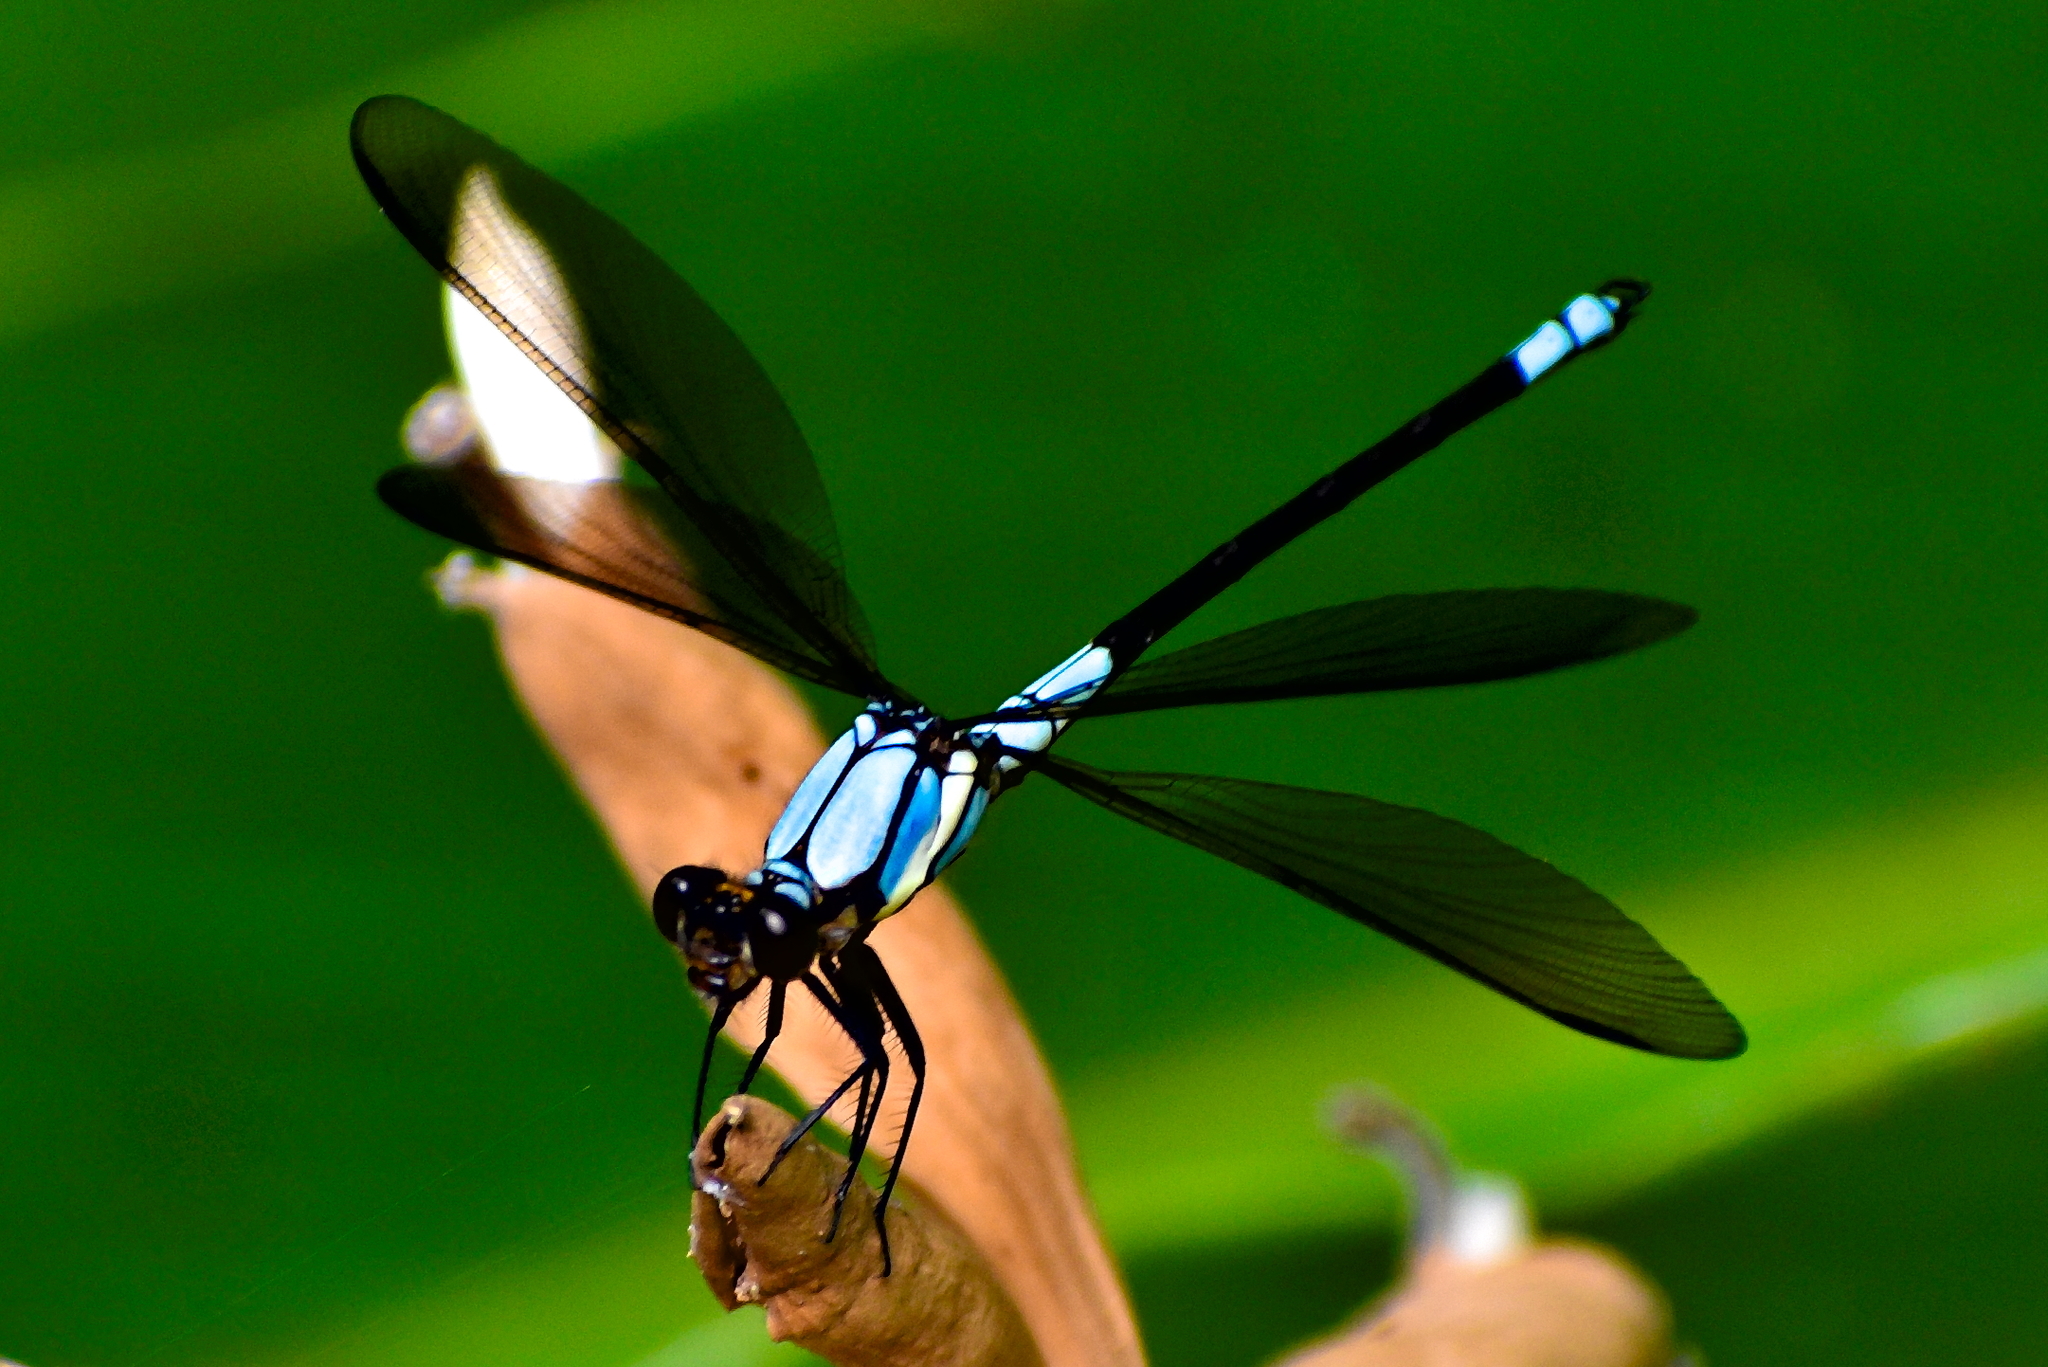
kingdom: Animalia
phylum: Arthropoda
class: Insecta
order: Odonata
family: Lestoideidae
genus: Diphlebia
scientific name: Diphlebia euphoeoides
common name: Tropical rockmaster
